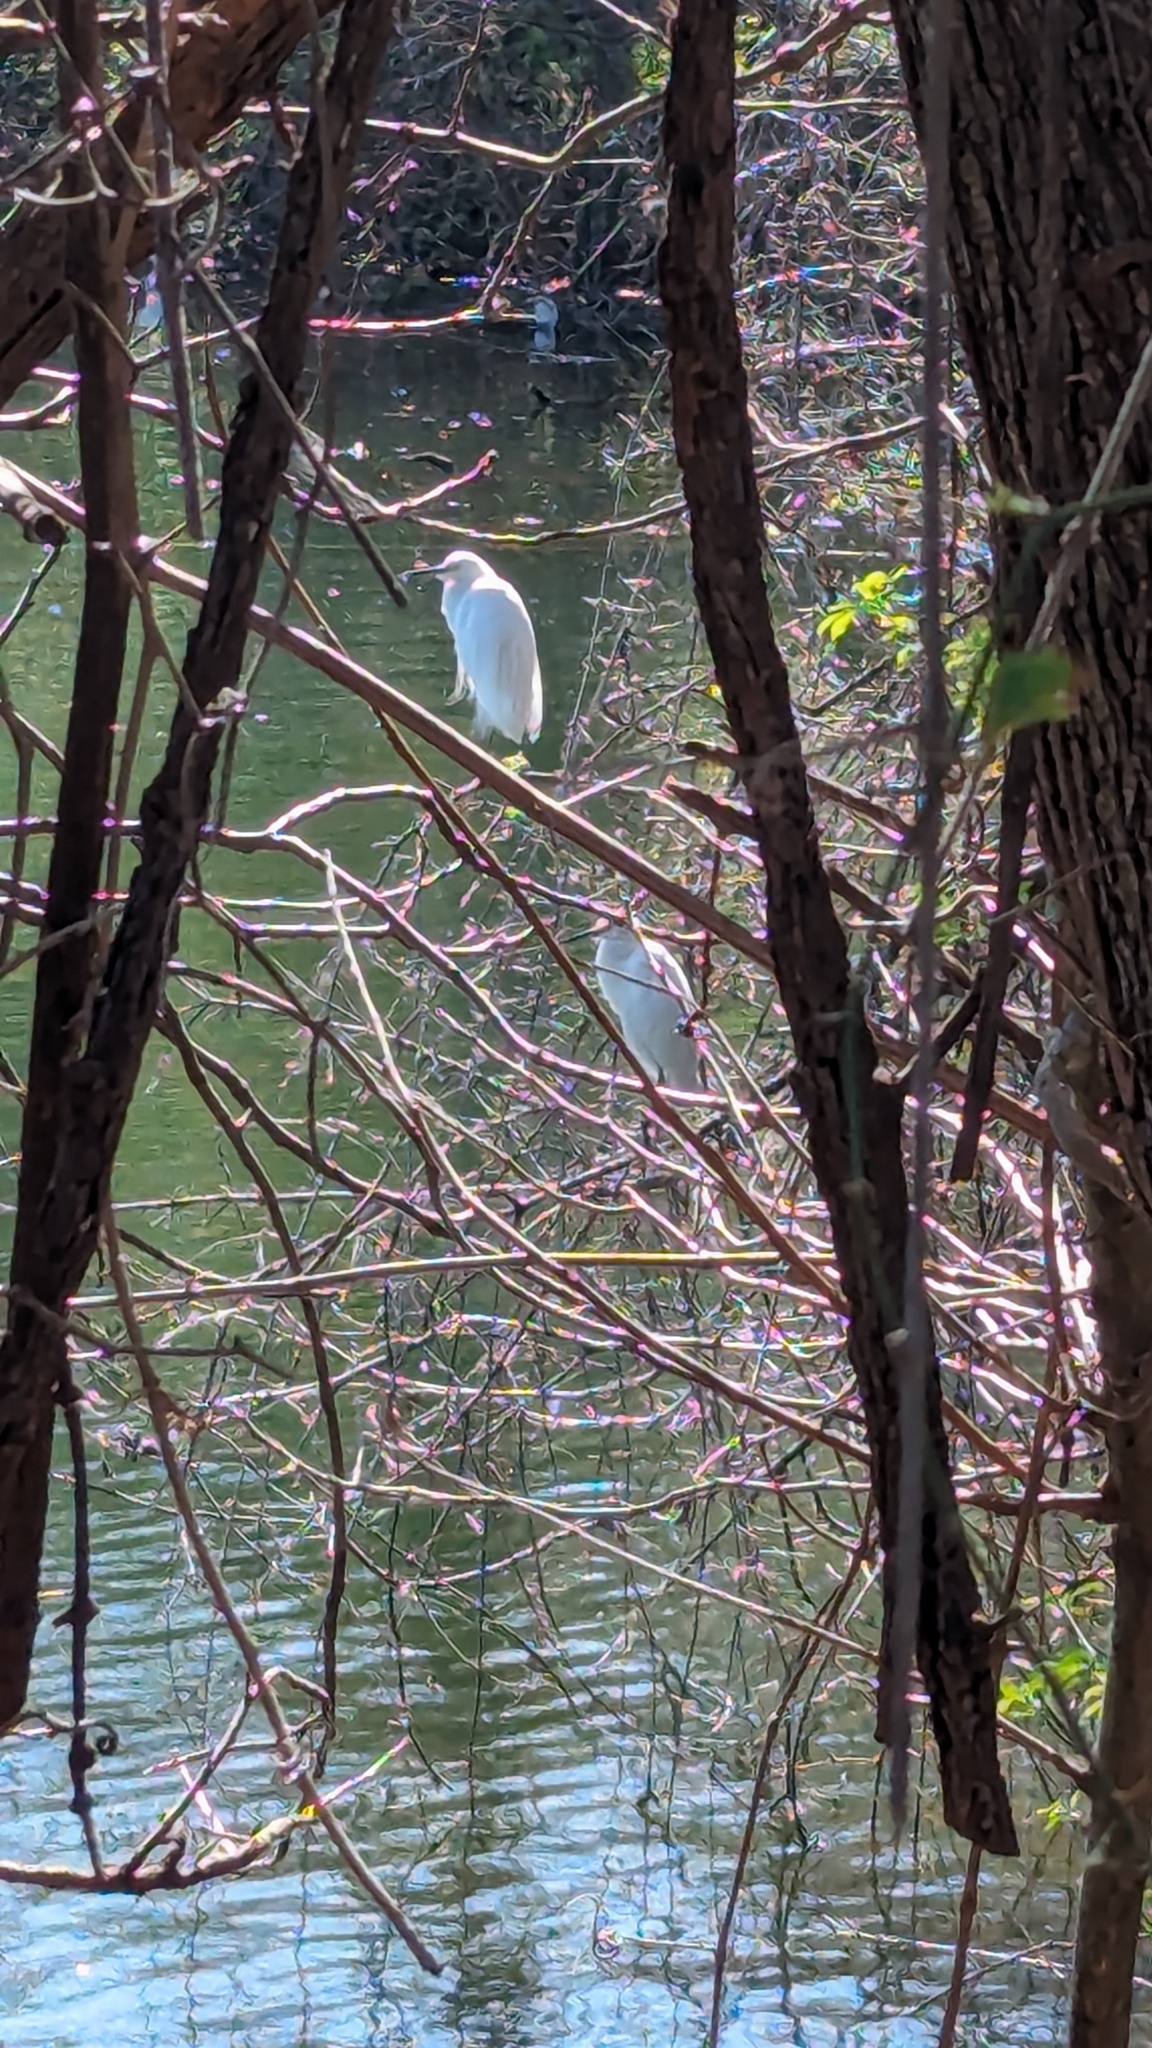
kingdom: Animalia
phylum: Chordata
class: Aves
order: Pelecaniformes
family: Ardeidae
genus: Egretta
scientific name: Egretta thula
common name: Snowy egret
